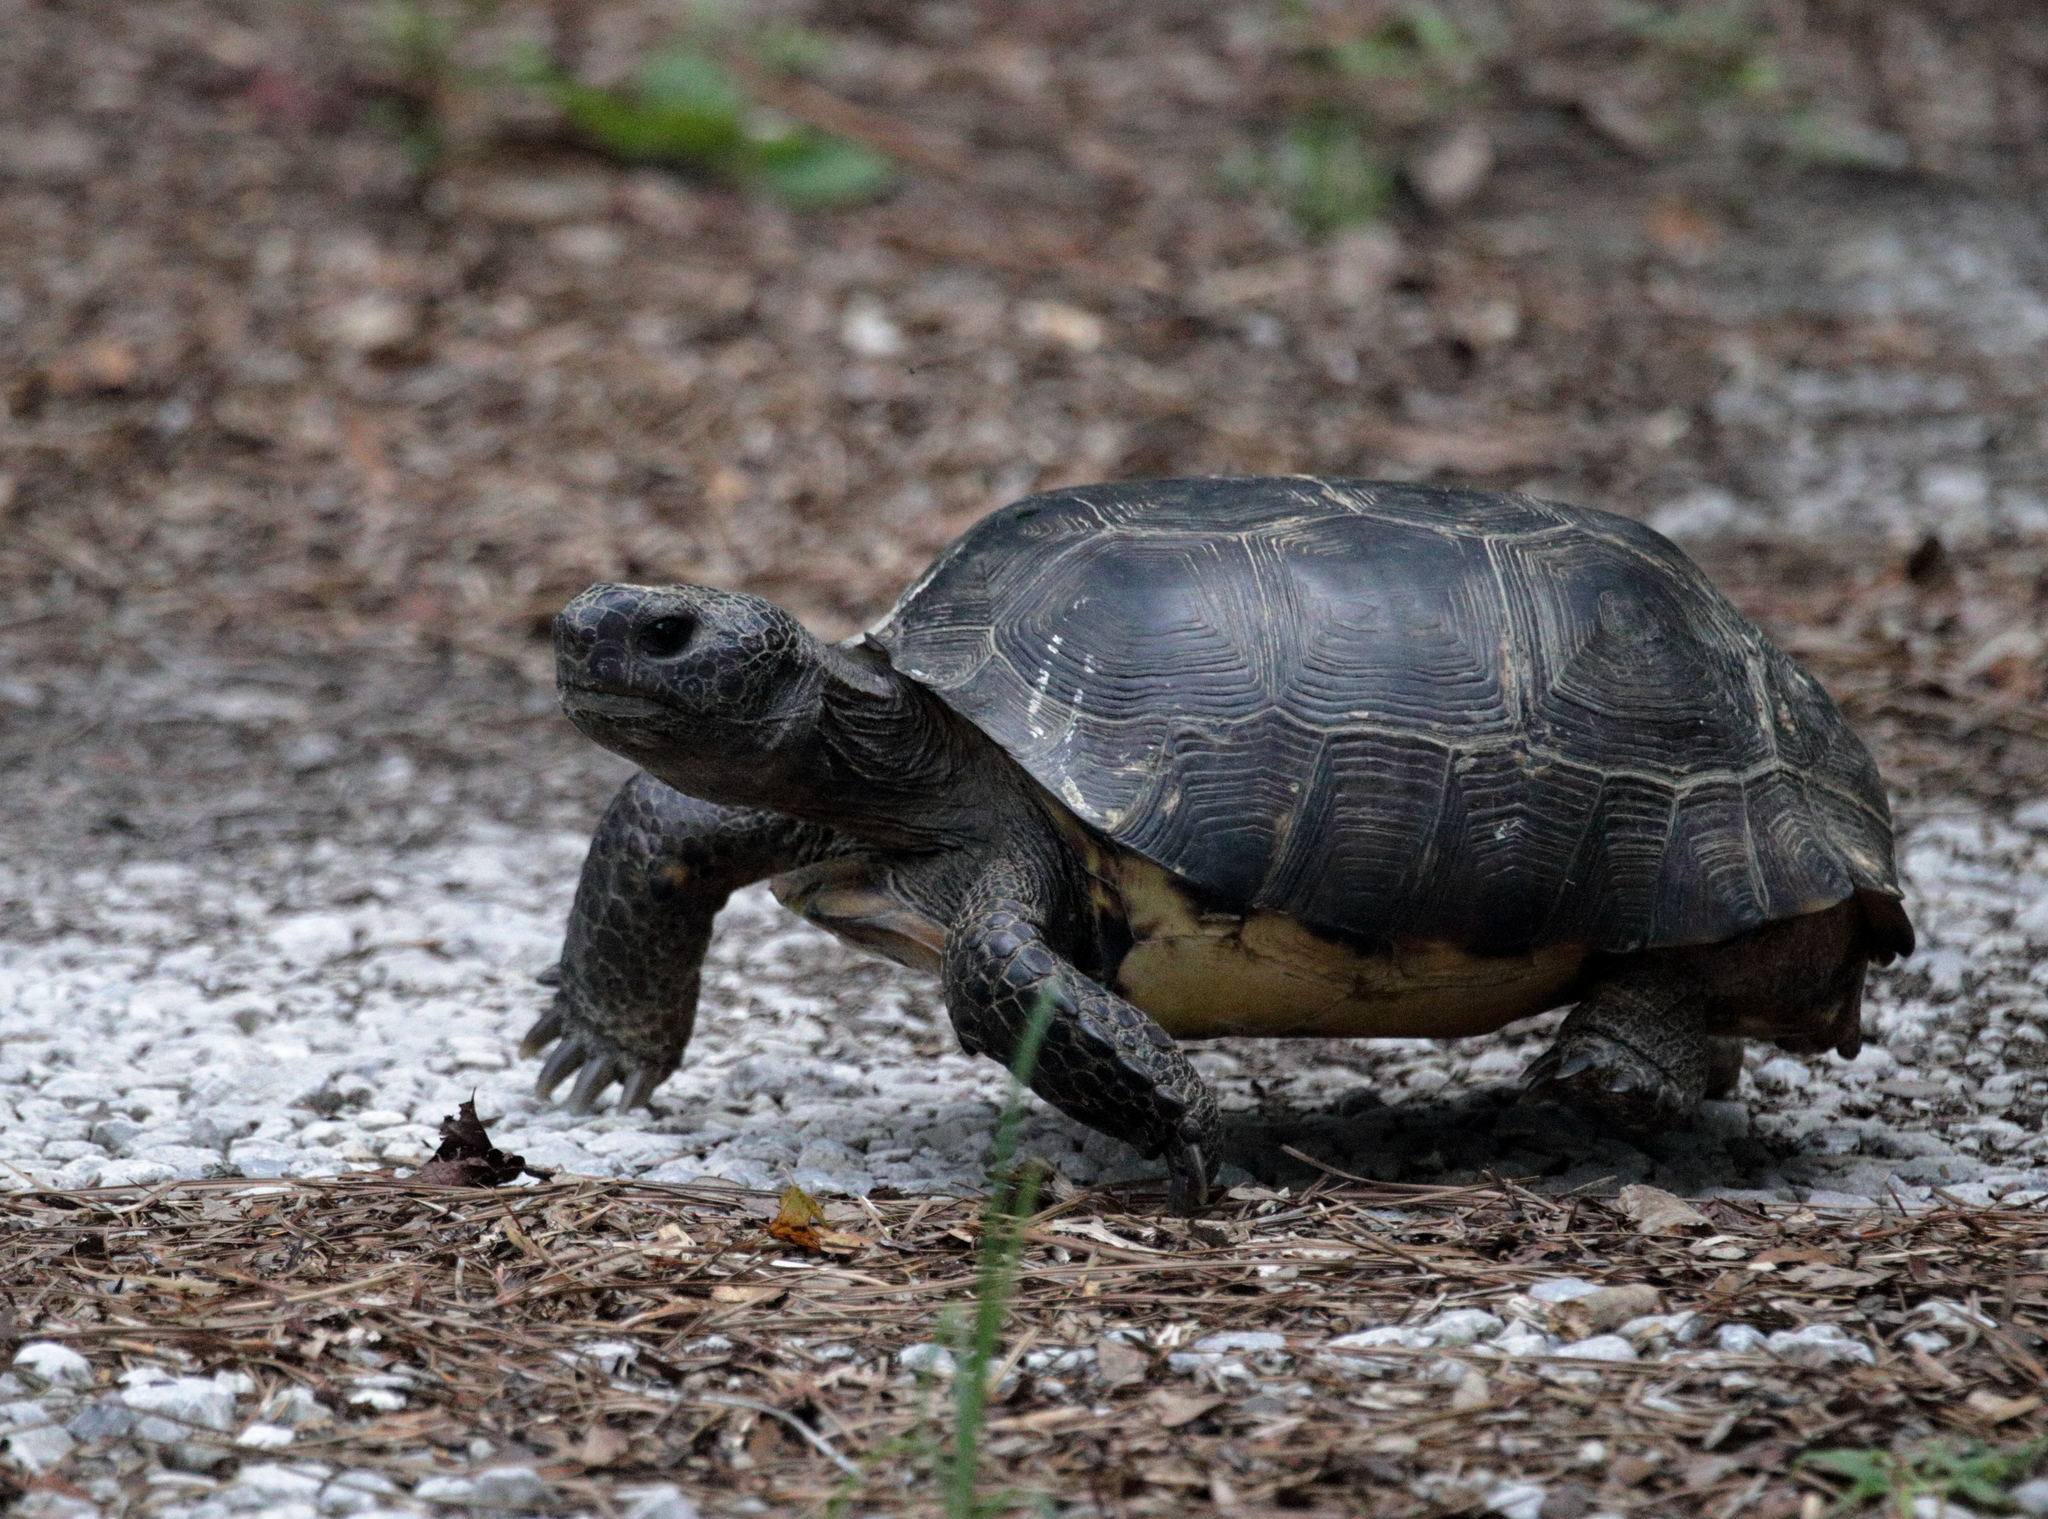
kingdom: Animalia
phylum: Chordata
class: Testudines
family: Testudinidae
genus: Gopherus
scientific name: Gopherus polyphemus
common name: Florida gopher tortoise
